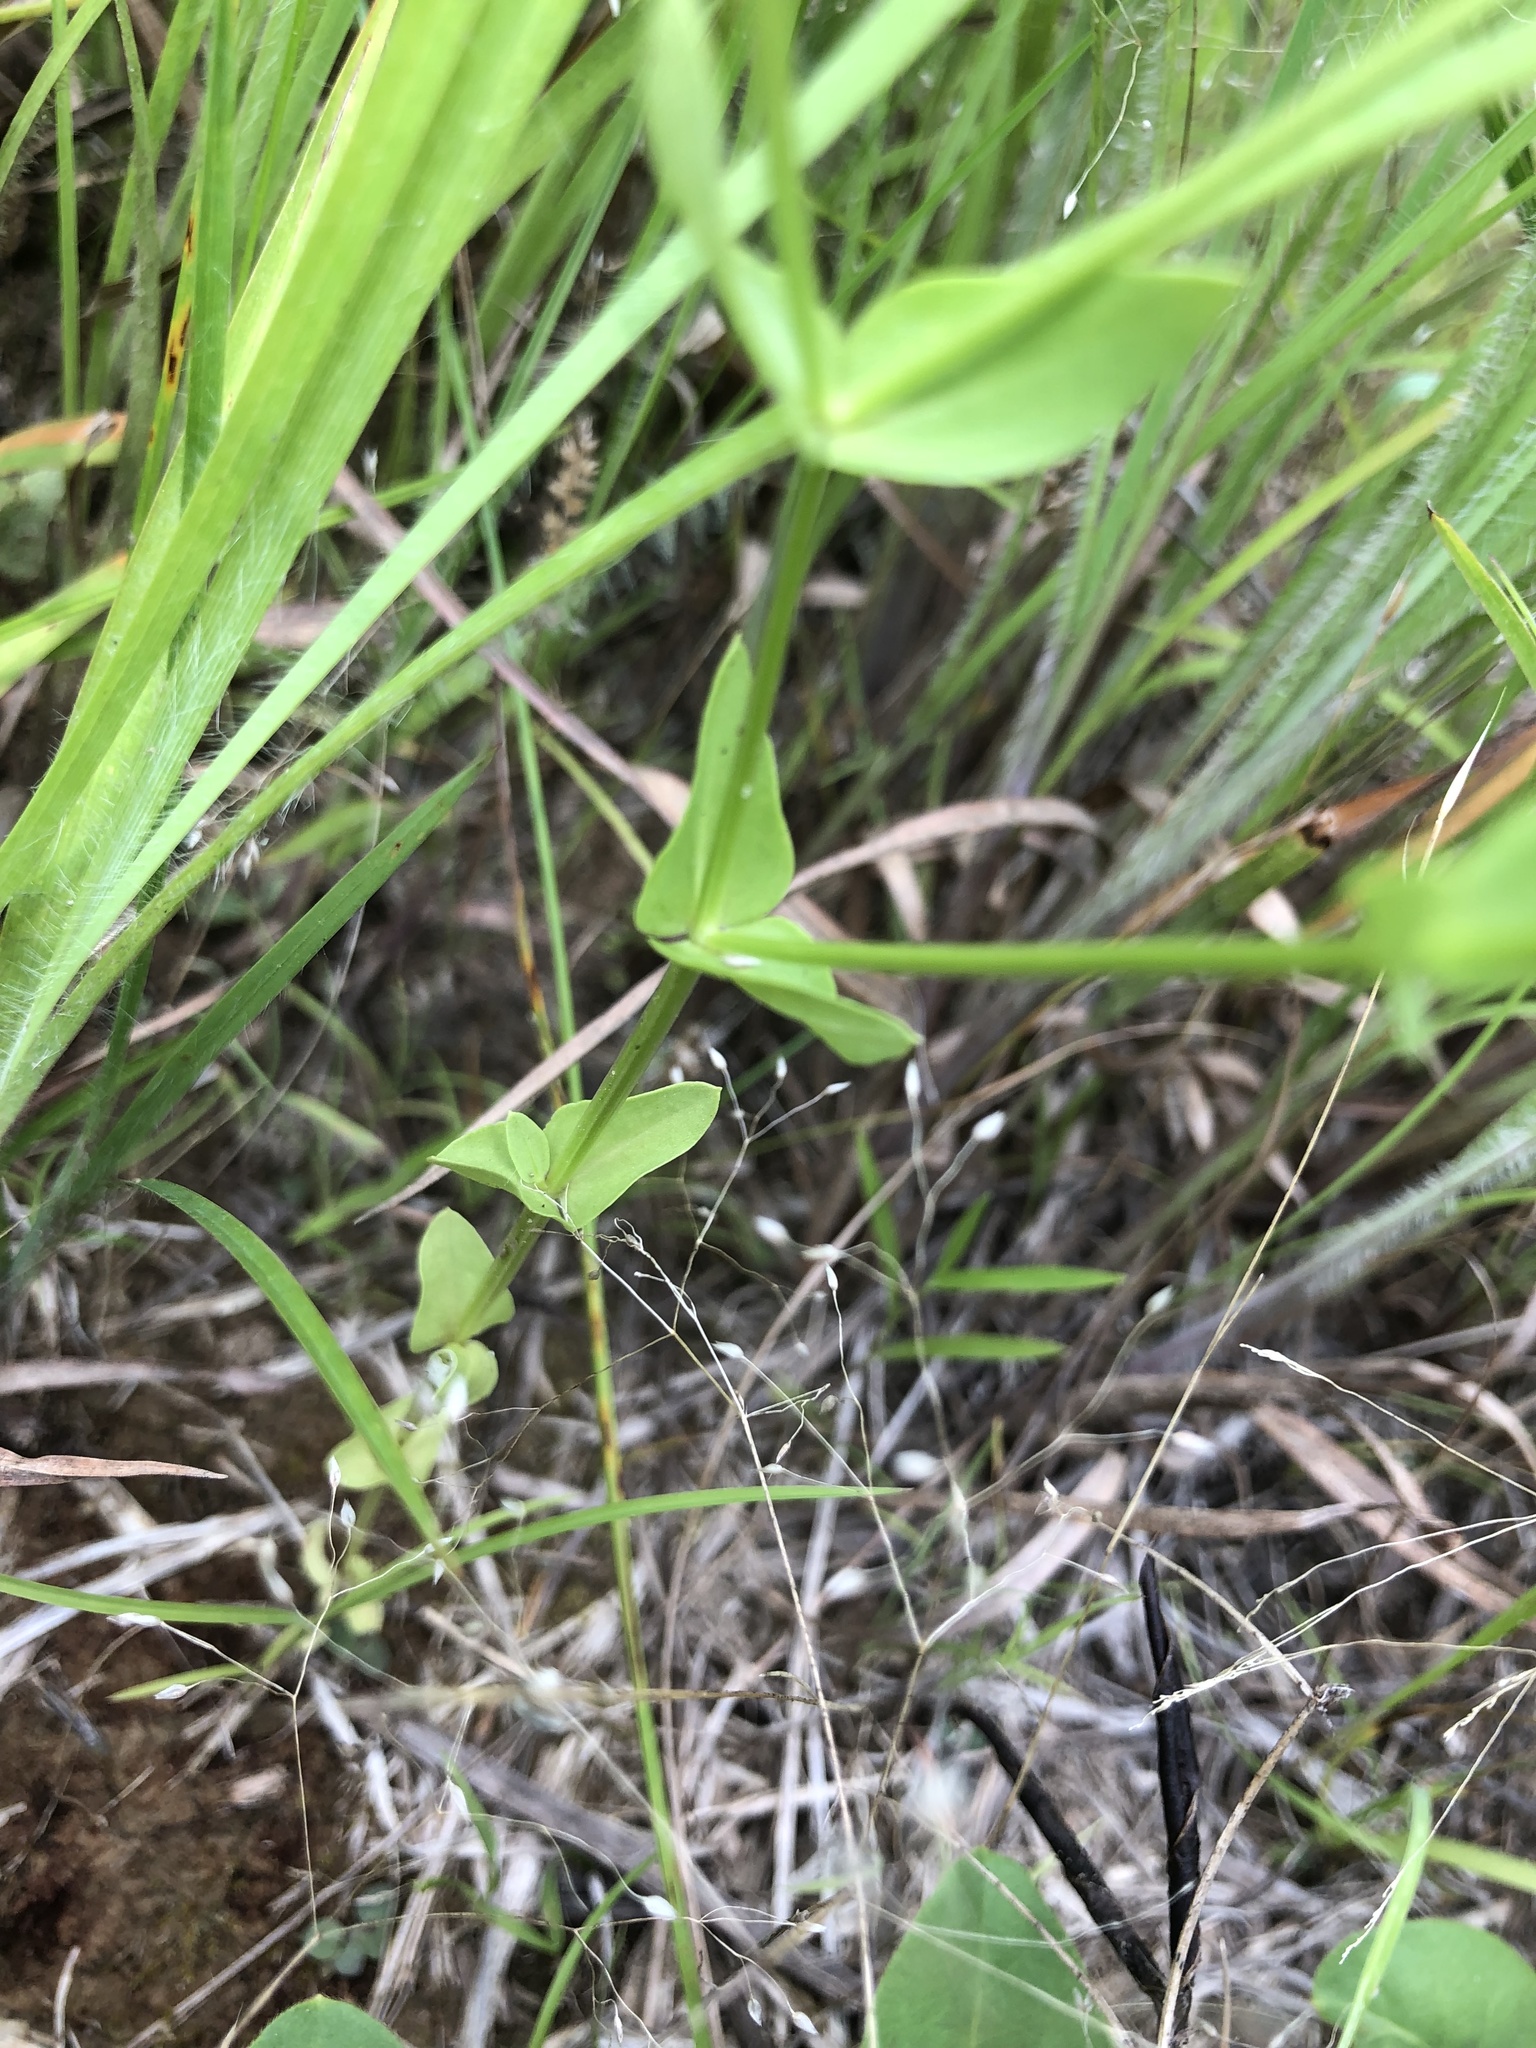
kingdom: Plantae
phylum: Tracheophyta
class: Magnoliopsida
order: Gentianales
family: Gentianaceae
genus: Sabatia
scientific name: Sabatia campestris
